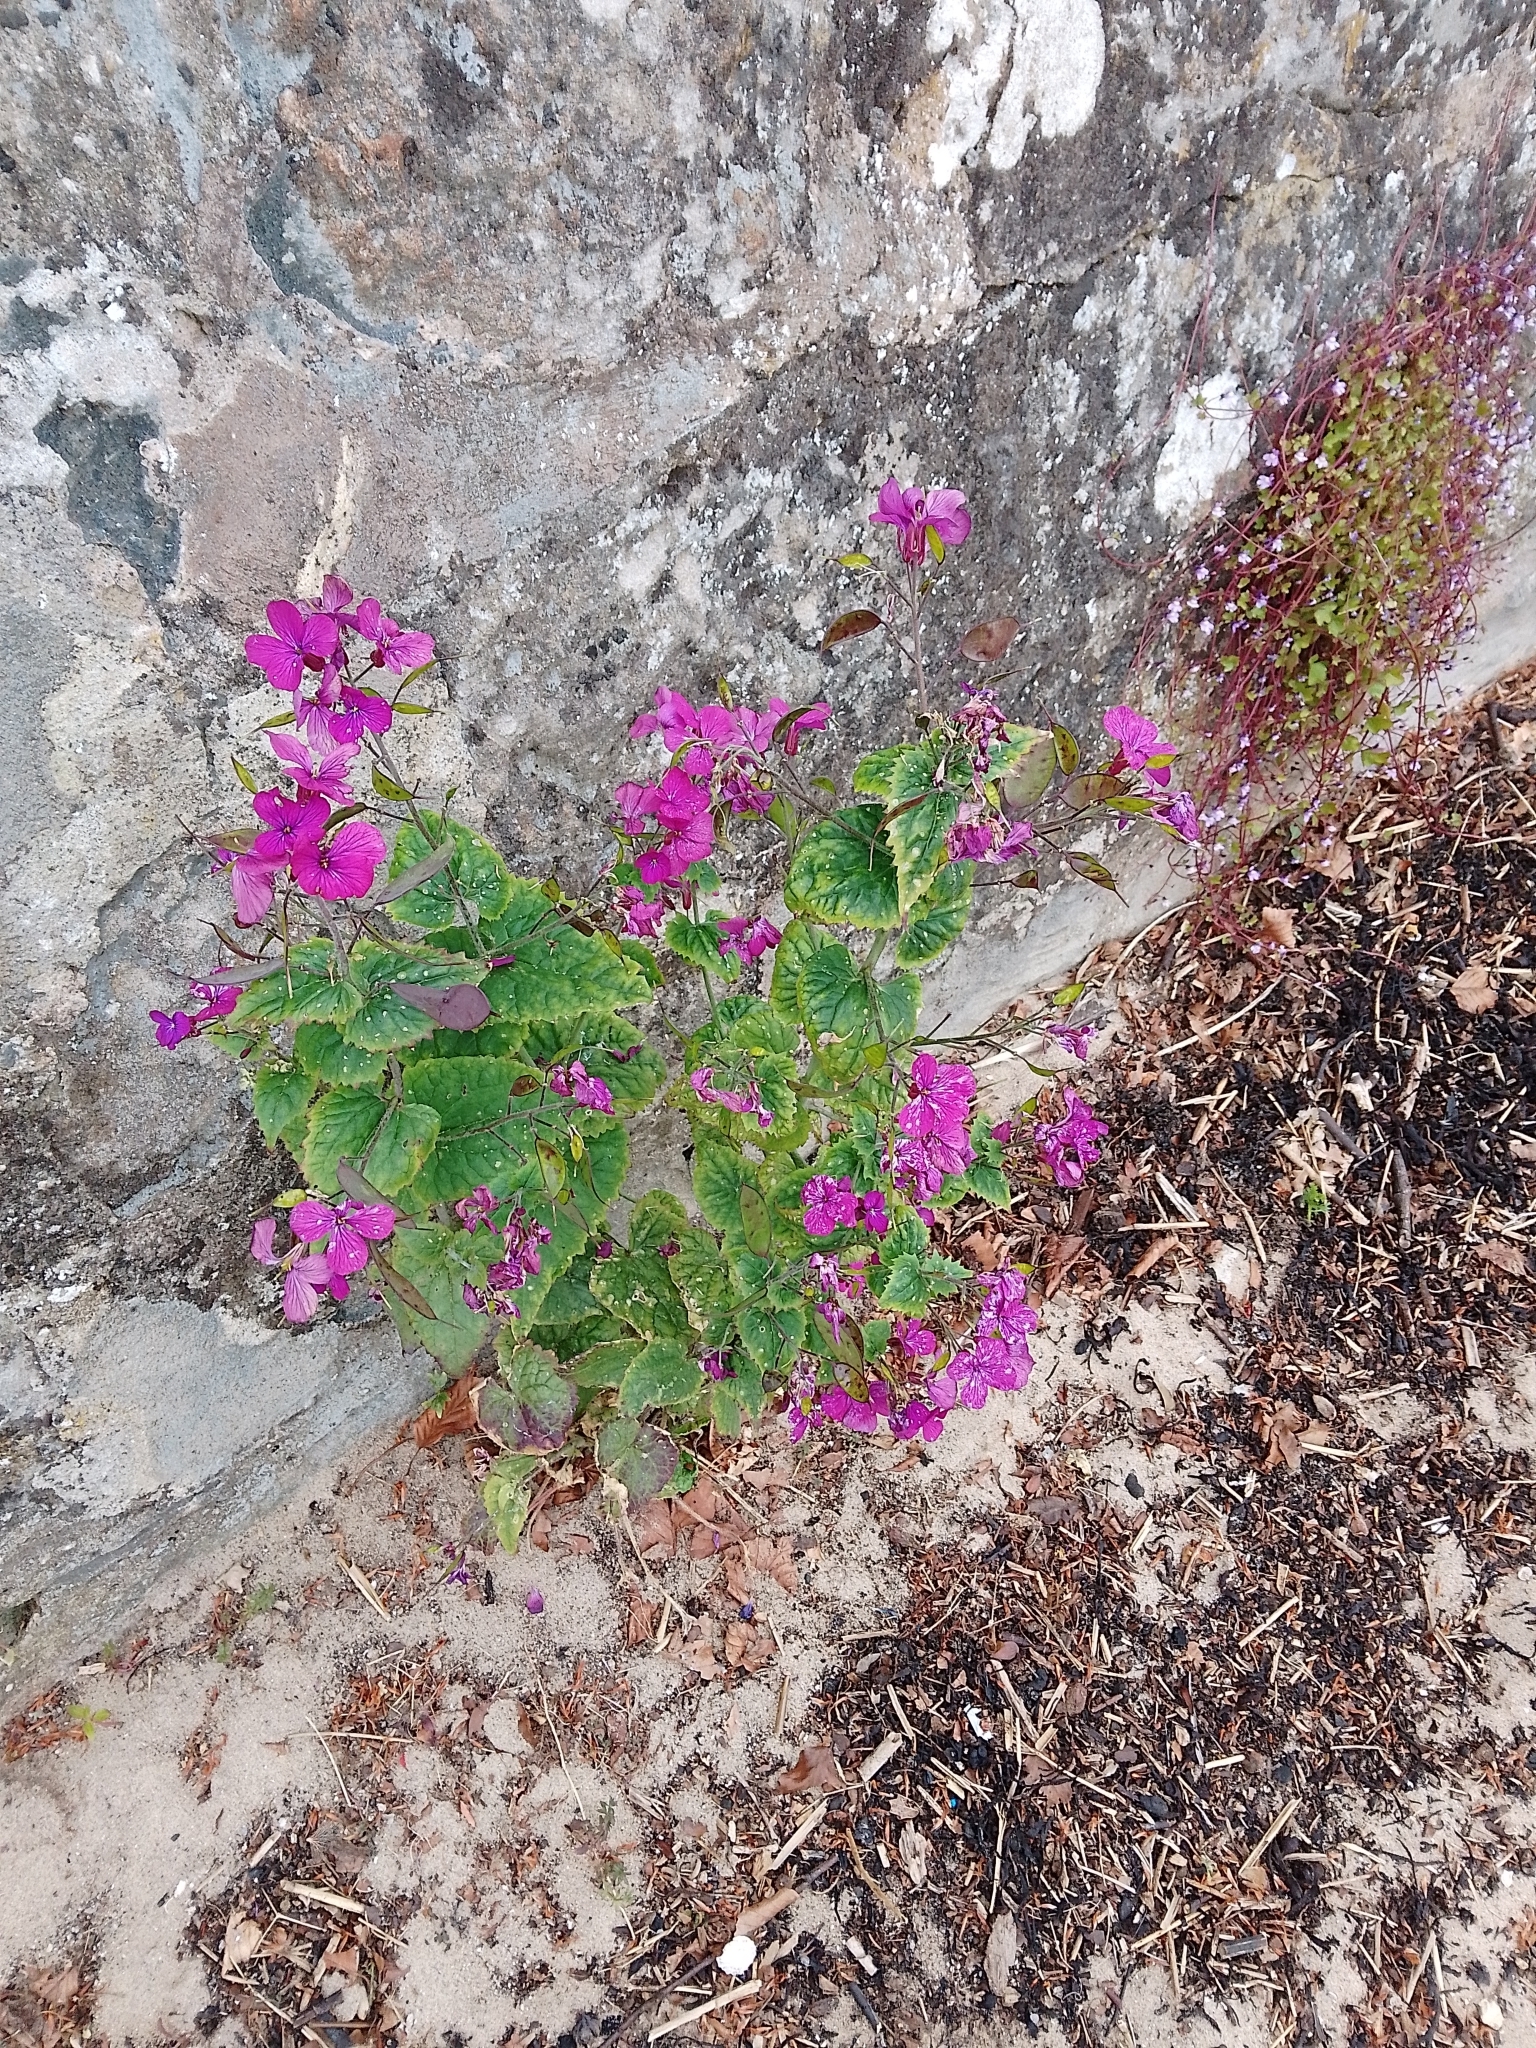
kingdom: Plantae
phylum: Tracheophyta
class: Magnoliopsida
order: Brassicales
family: Brassicaceae
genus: Lunaria
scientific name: Lunaria annua
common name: Honesty
